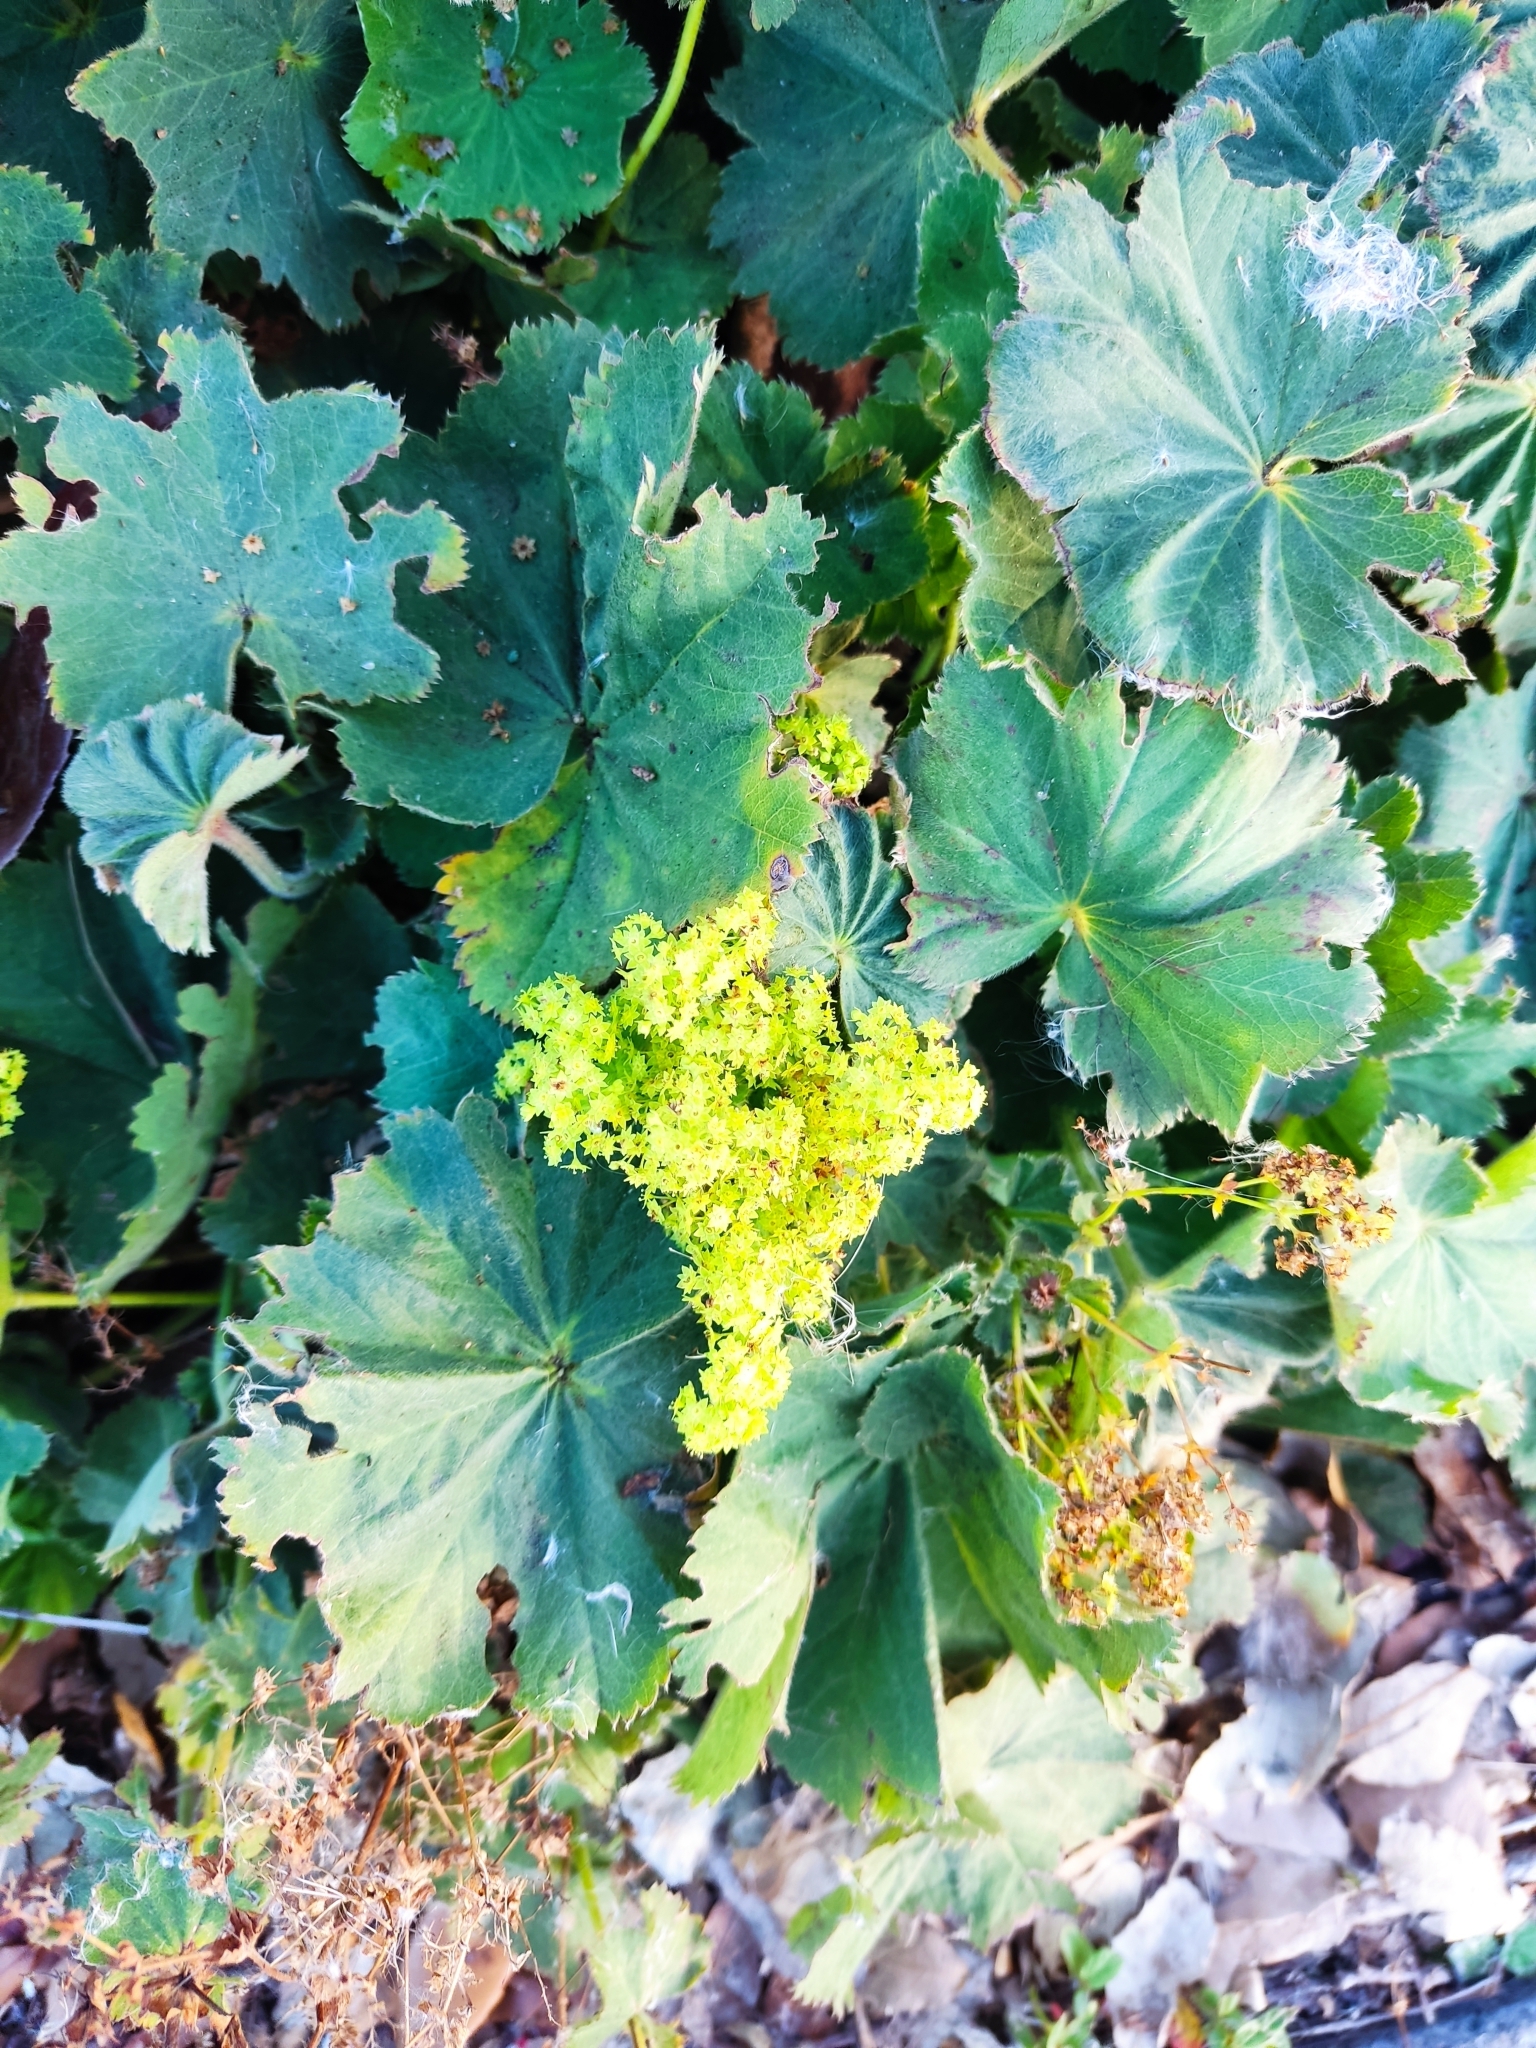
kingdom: Plantae
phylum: Tracheophyta
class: Magnoliopsida
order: Rosales
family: Rosaceae
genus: Alchemilla
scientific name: Alchemilla mollis
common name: Lady's-mantle
